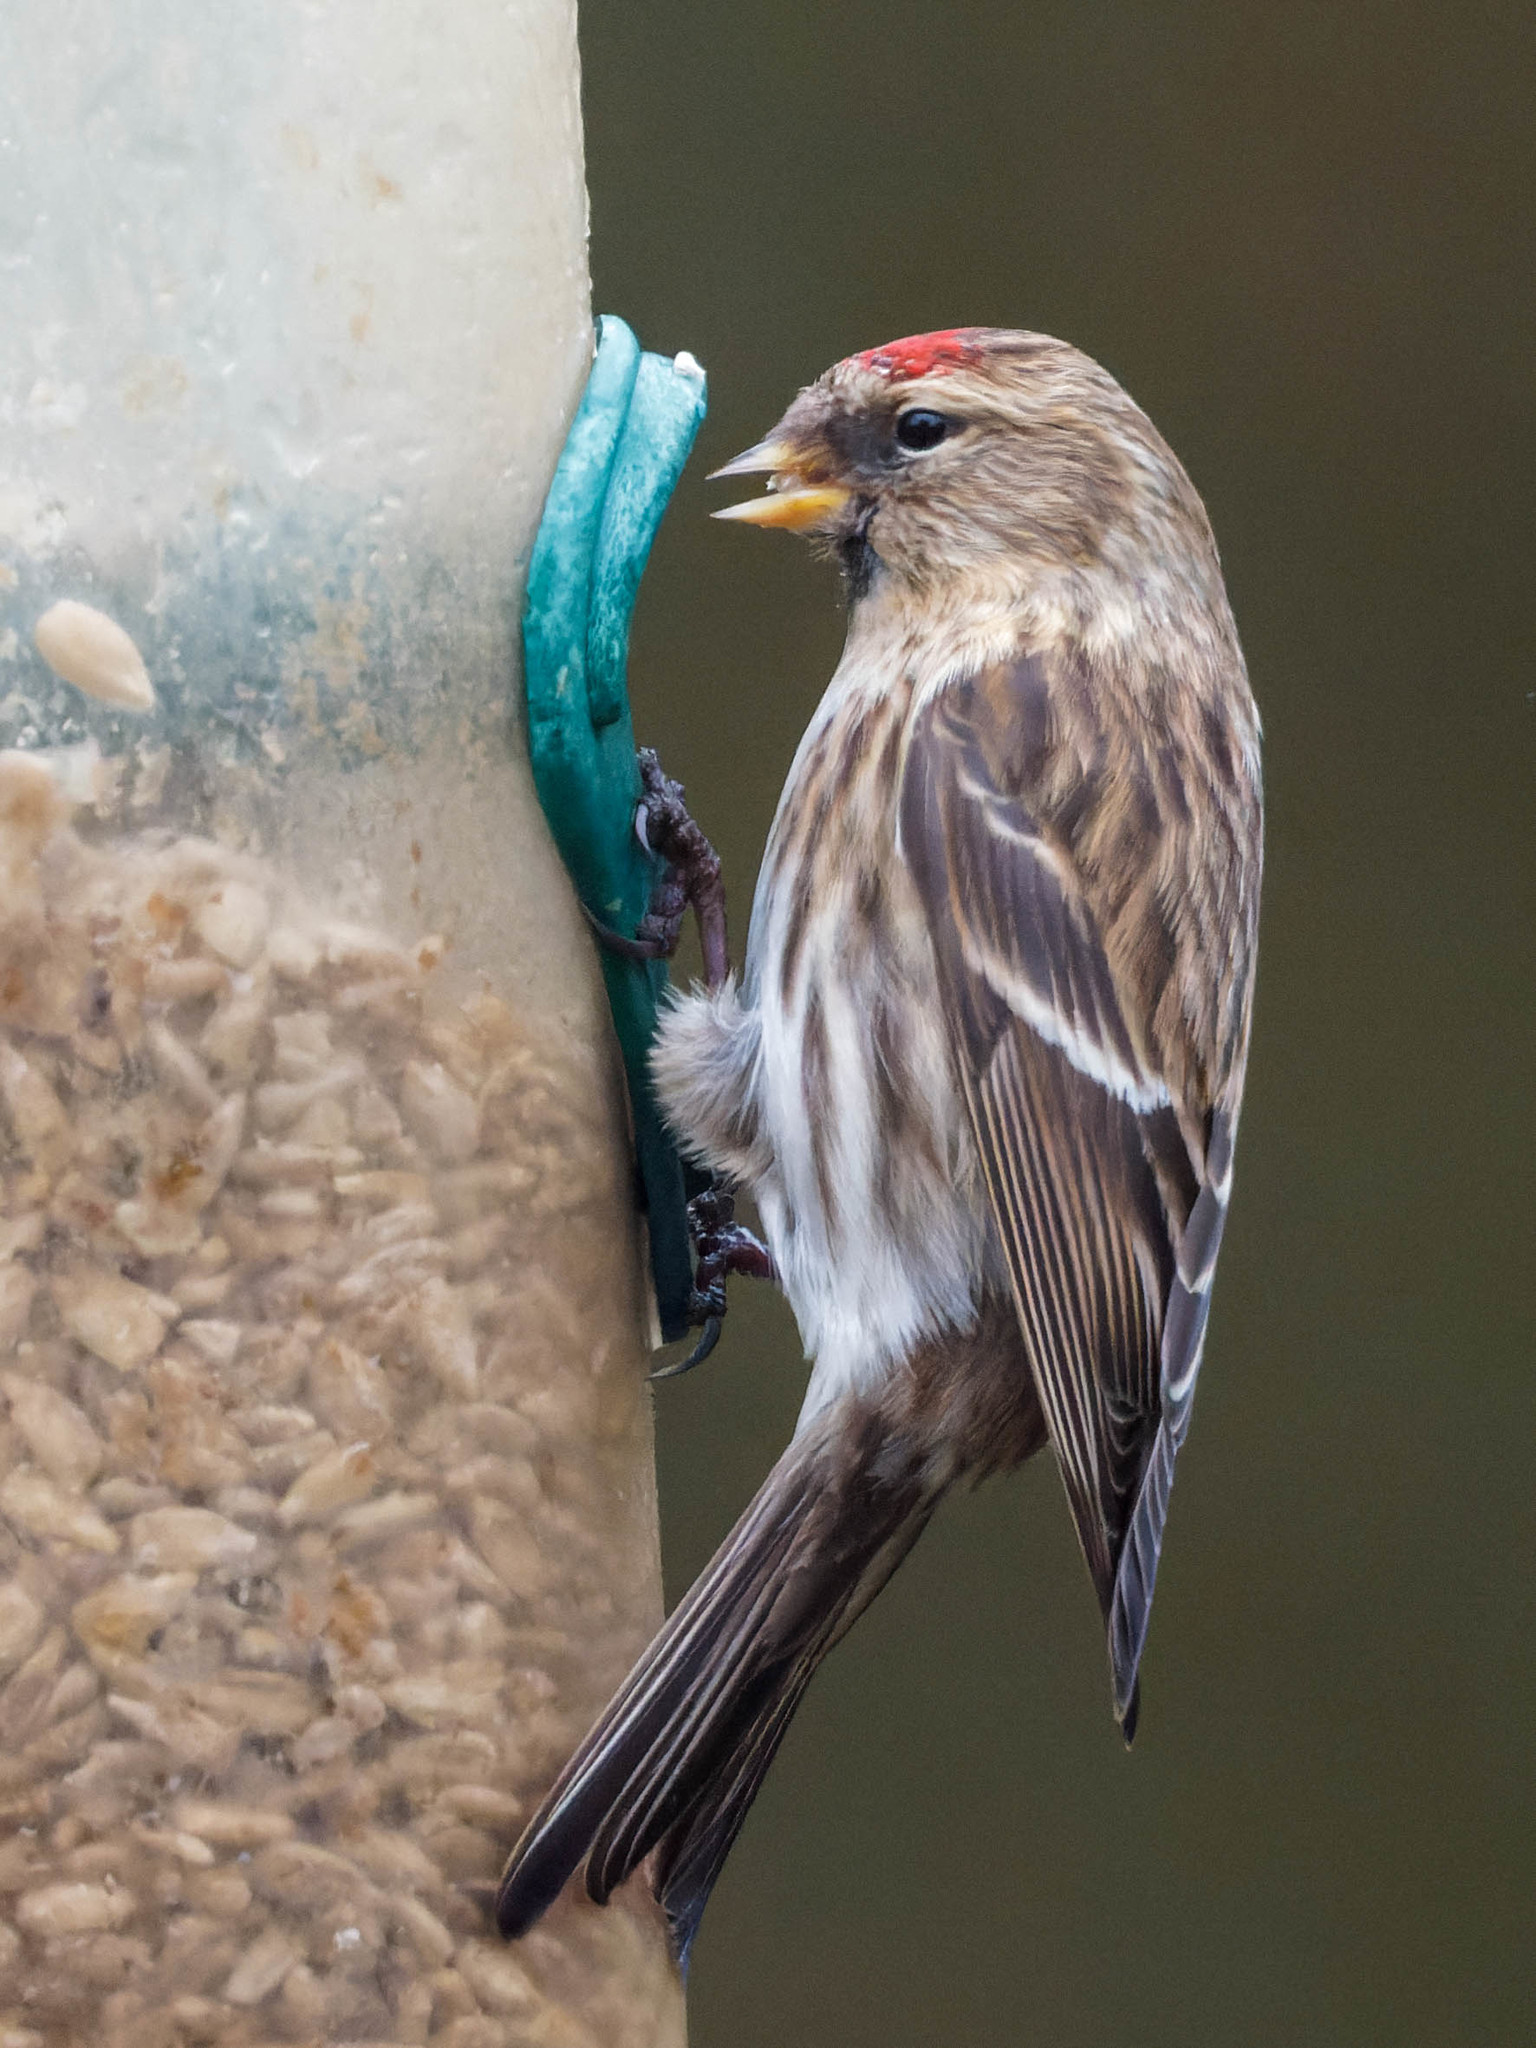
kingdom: Animalia
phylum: Chordata
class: Aves
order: Passeriformes
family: Fringillidae
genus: Acanthis
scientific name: Acanthis flammea
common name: Common redpoll
